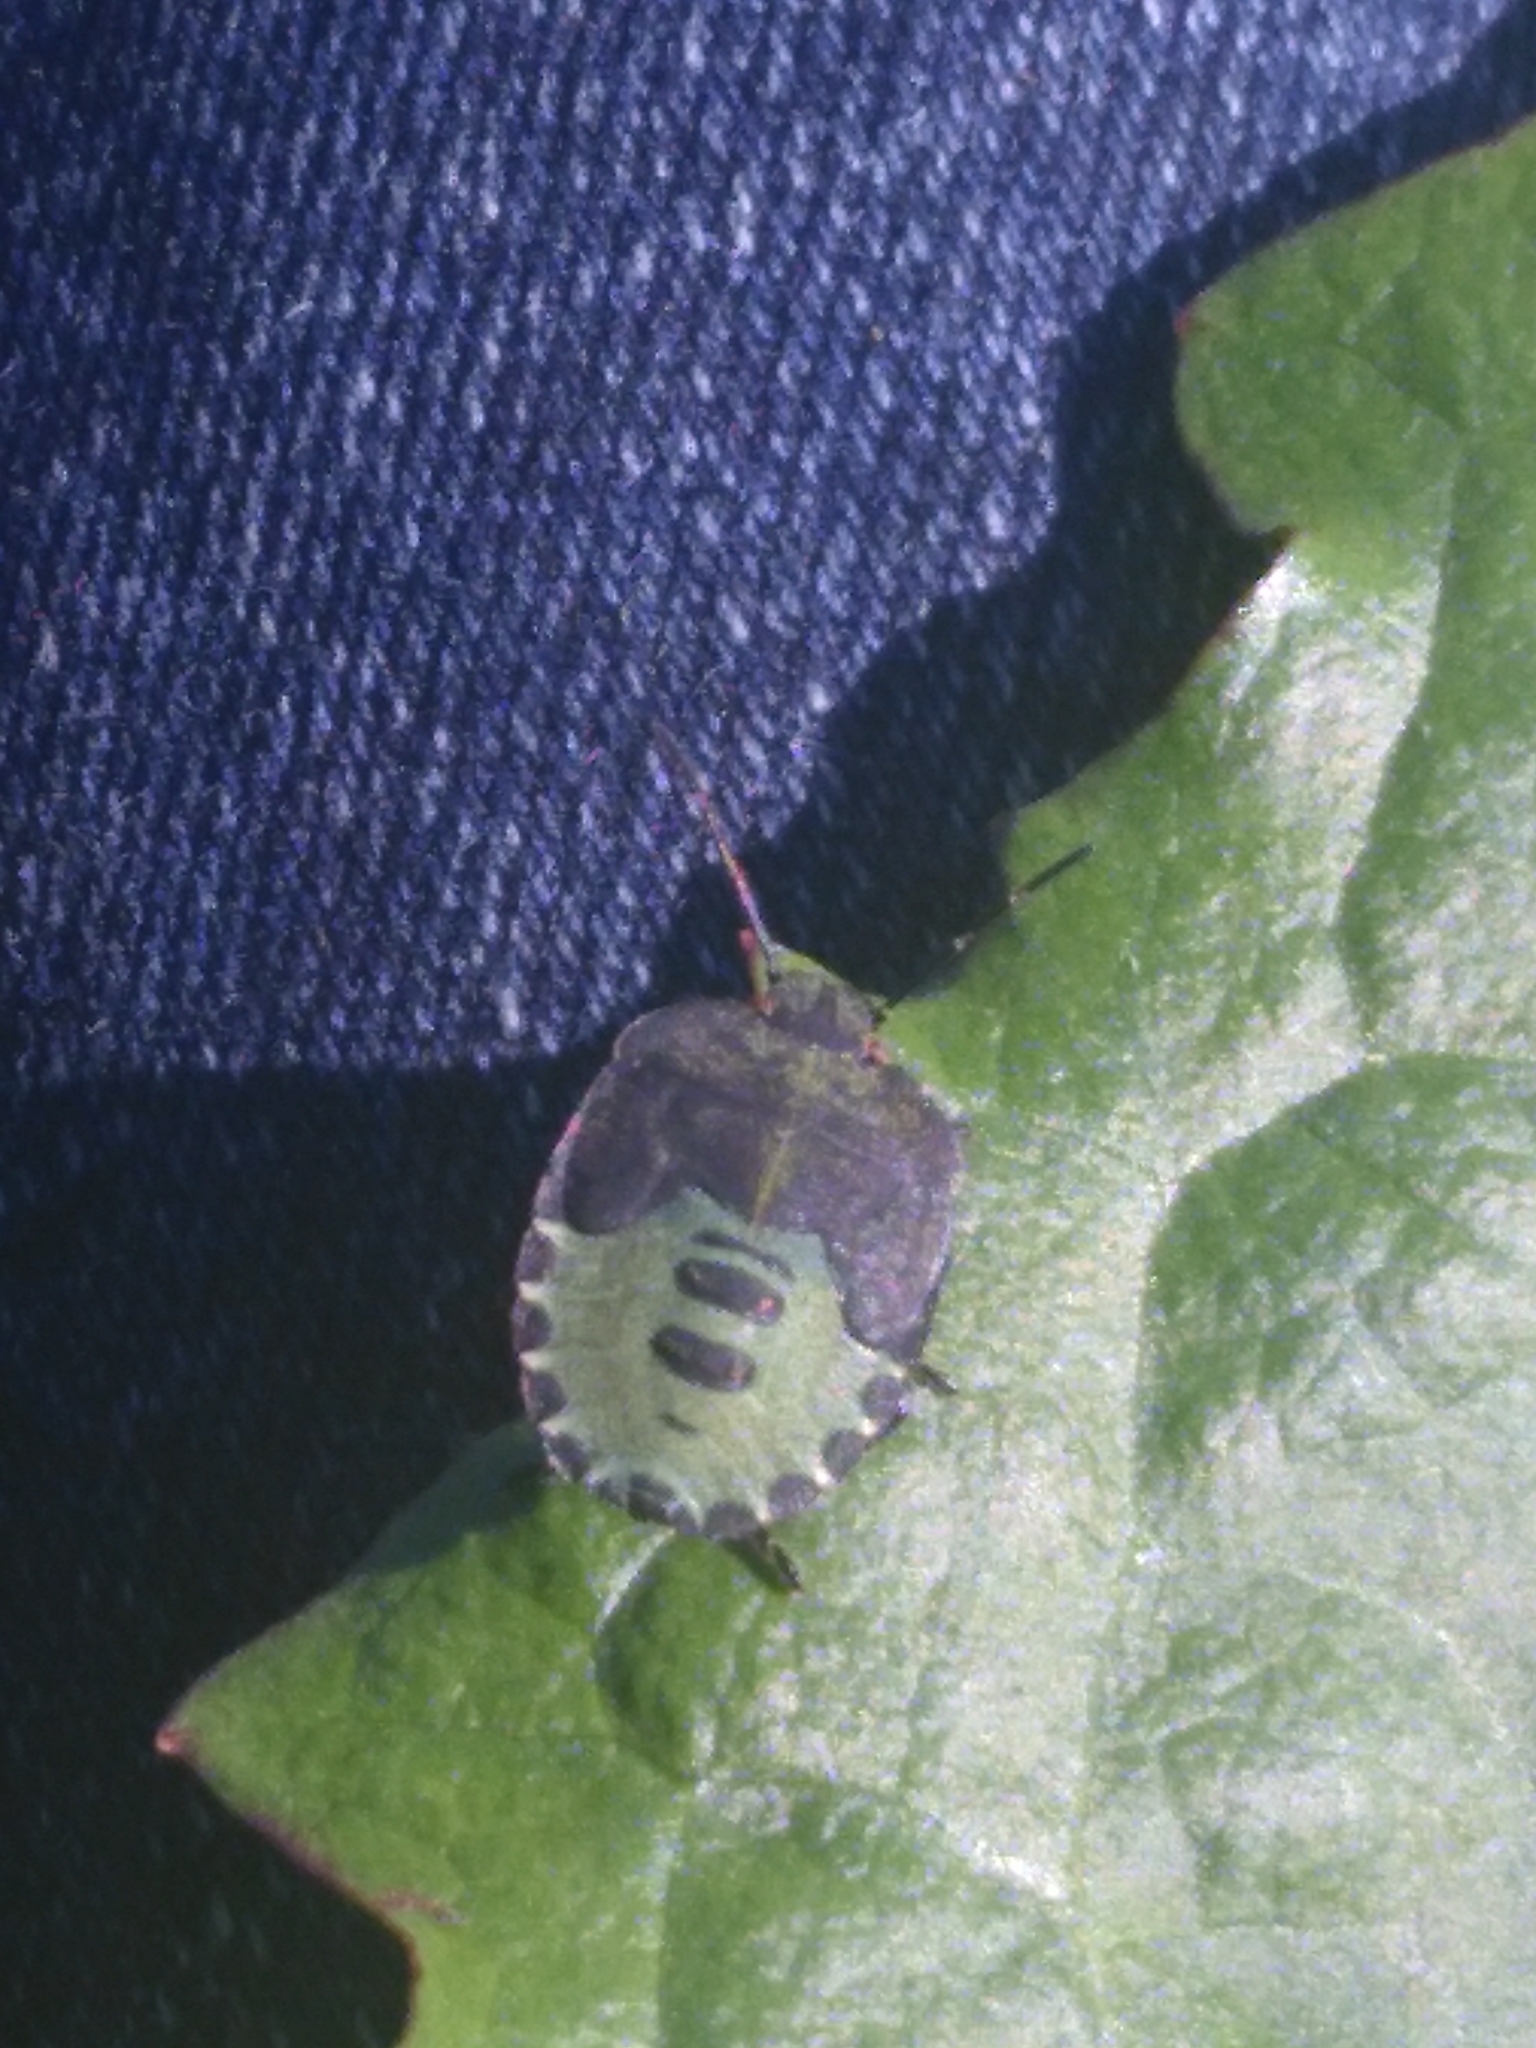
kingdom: Animalia
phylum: Arthropoda
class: Insecta
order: Hemiptera
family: Pentatomidae
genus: Palomena
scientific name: Palomena prasina
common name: Green shieldbug
